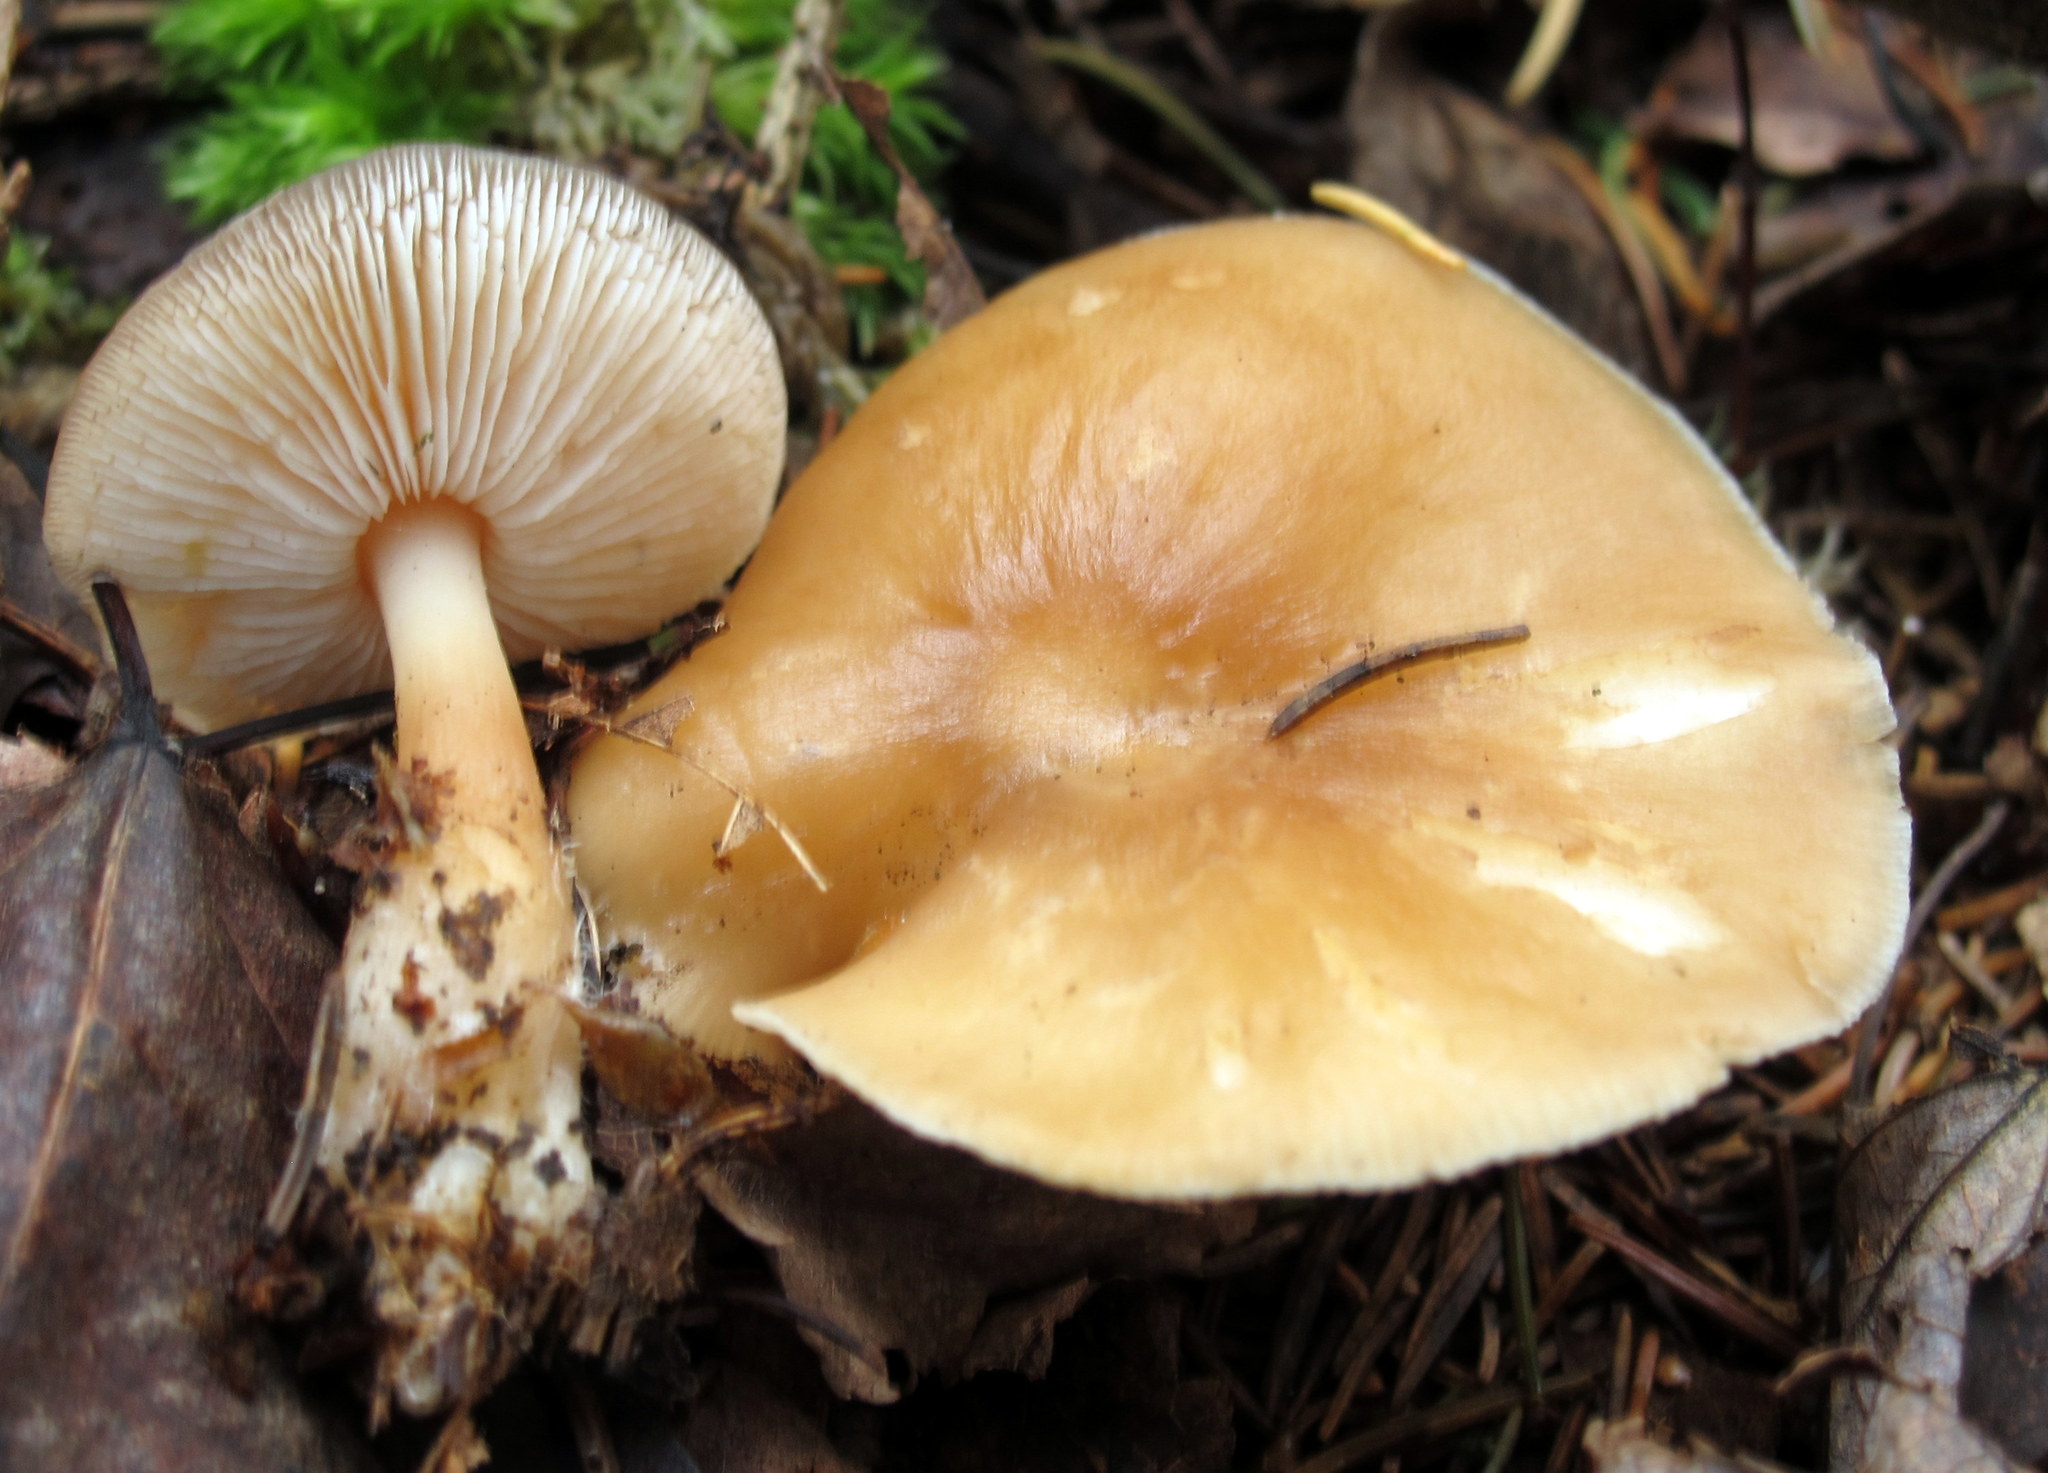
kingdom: Fungi
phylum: Basidiomycota
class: Agaricomycetes
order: Agaricales
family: Omphalotaceae
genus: Rhodocollybia
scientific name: Rhodocollybia butyracea
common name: Butter cap
